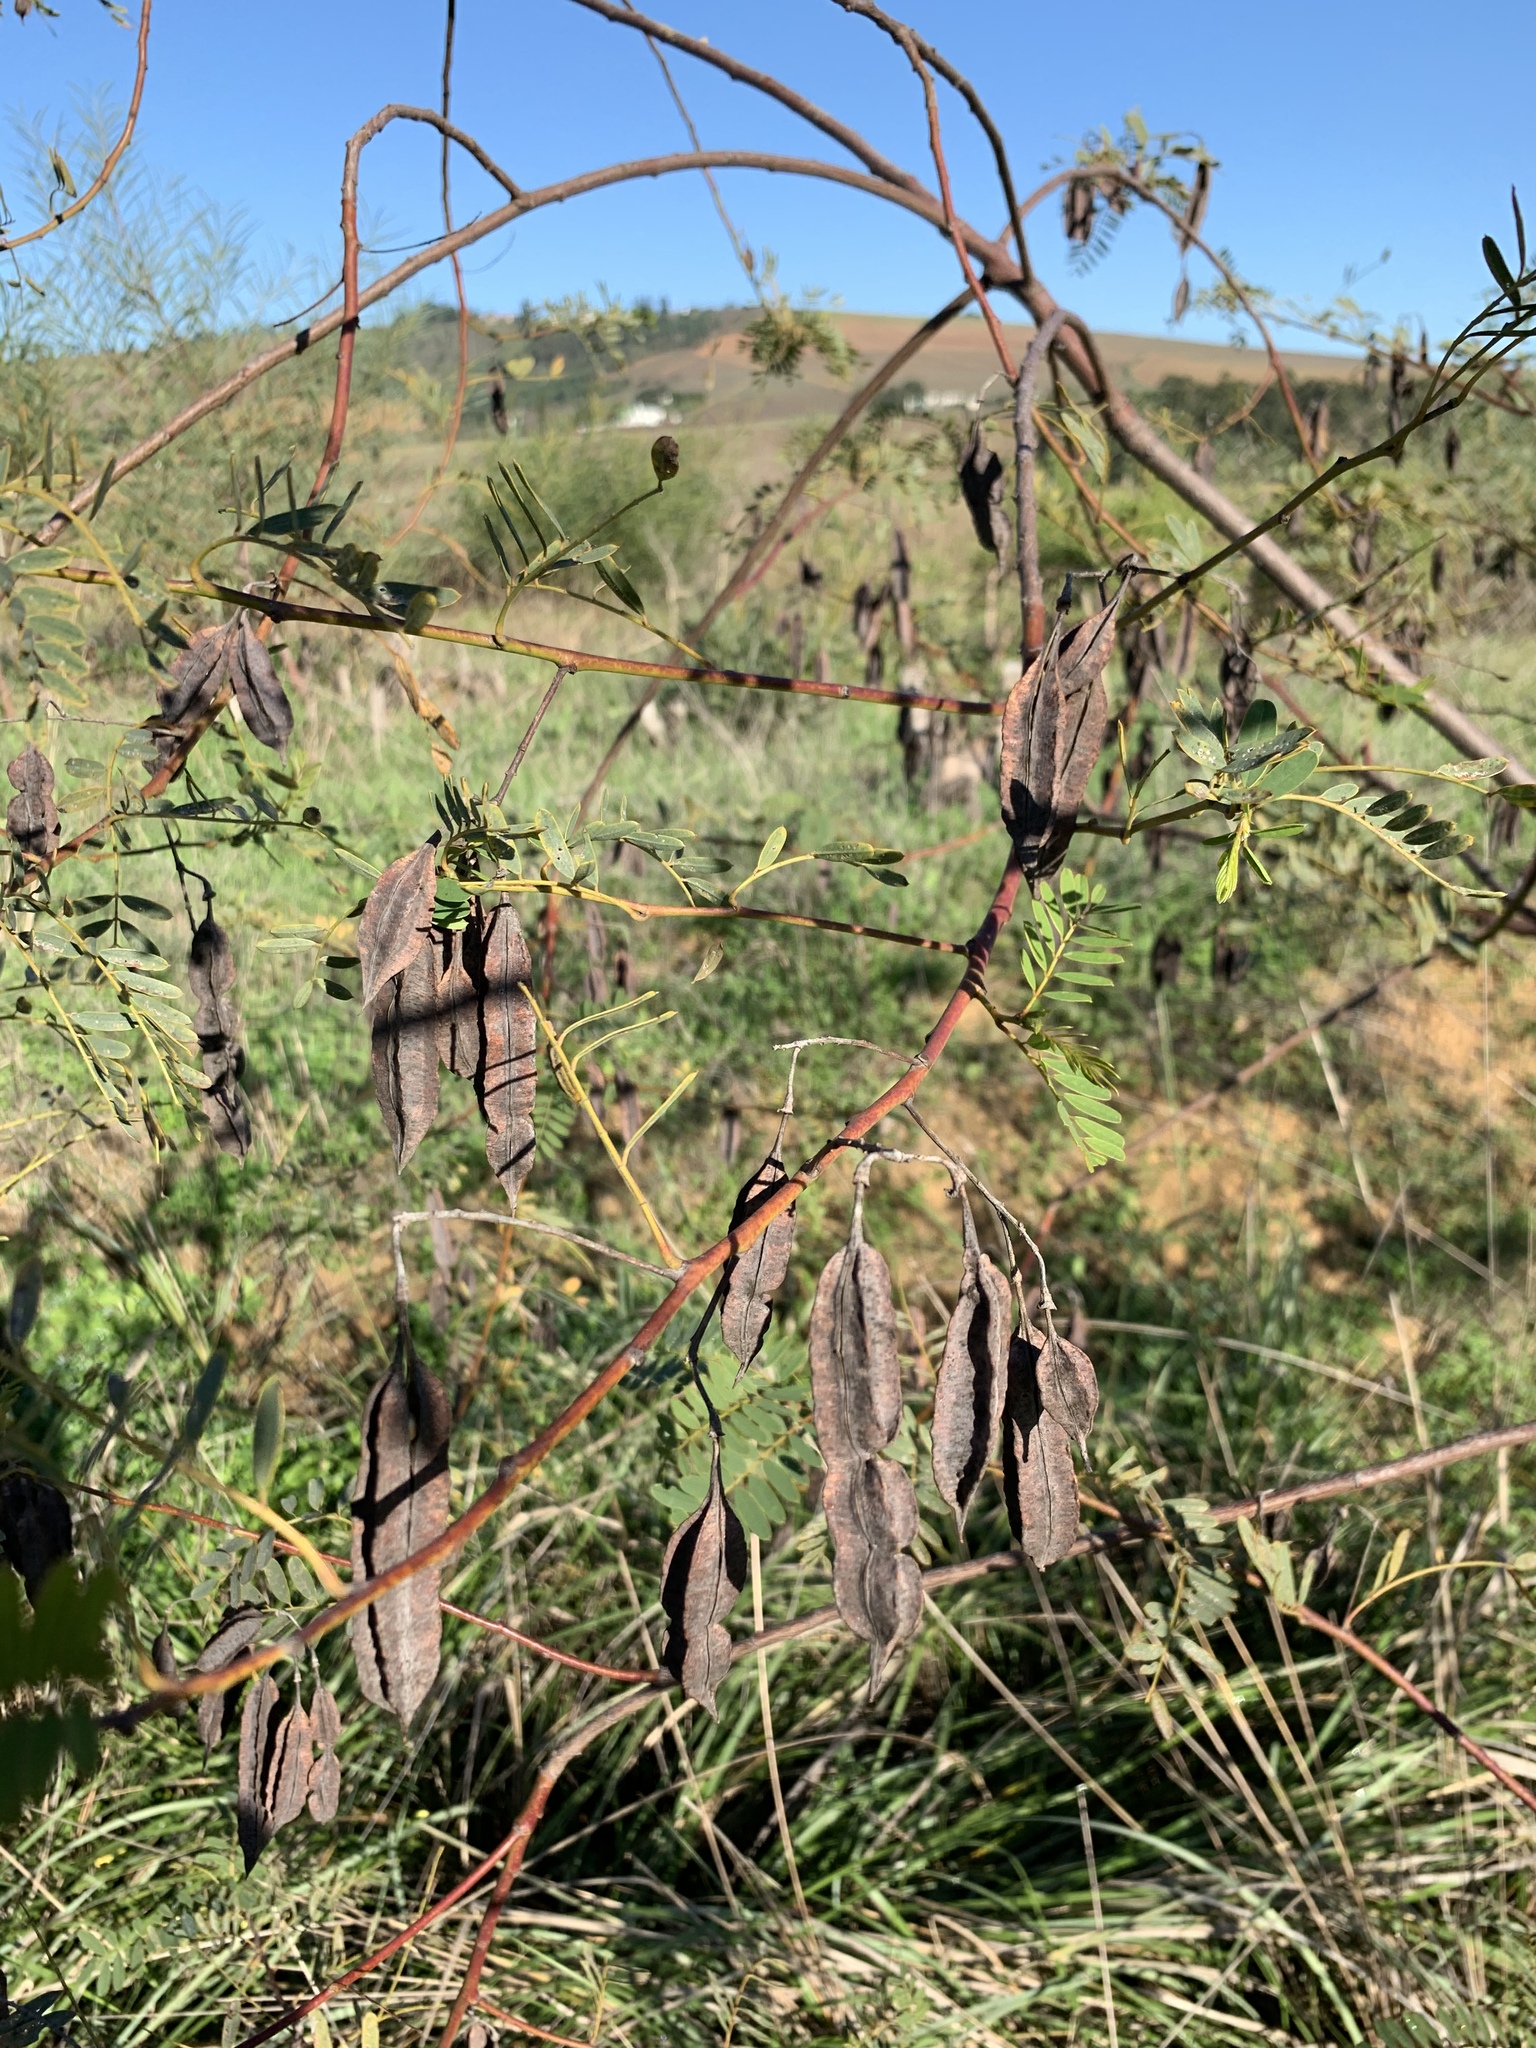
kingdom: Plantae
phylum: Tracheophyta
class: Magnoliopsida
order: Fabales
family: Fabaceae
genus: Sesbania
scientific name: Sesbania punicea
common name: Rattlebox
